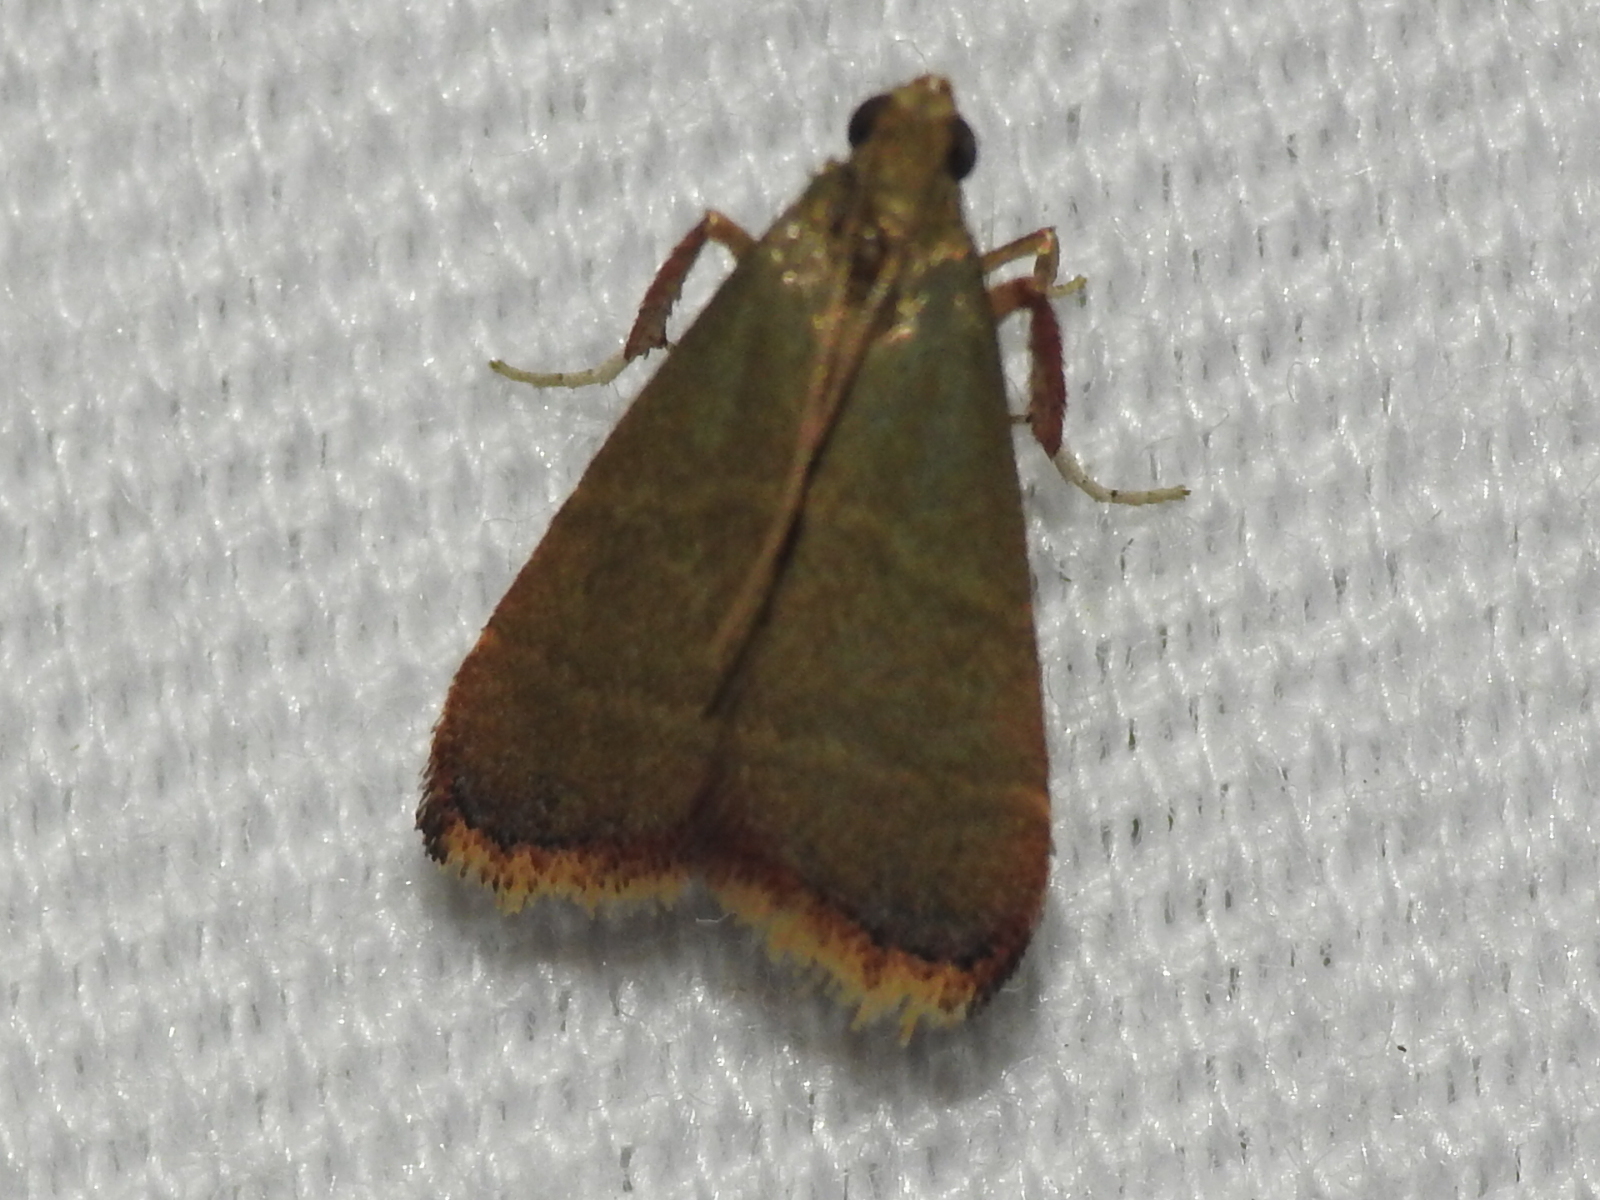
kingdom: Animalia
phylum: Arthropoda
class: Insecta
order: Lepidoptera
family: Pyralidae
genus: Arta
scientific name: Arta olivalis
